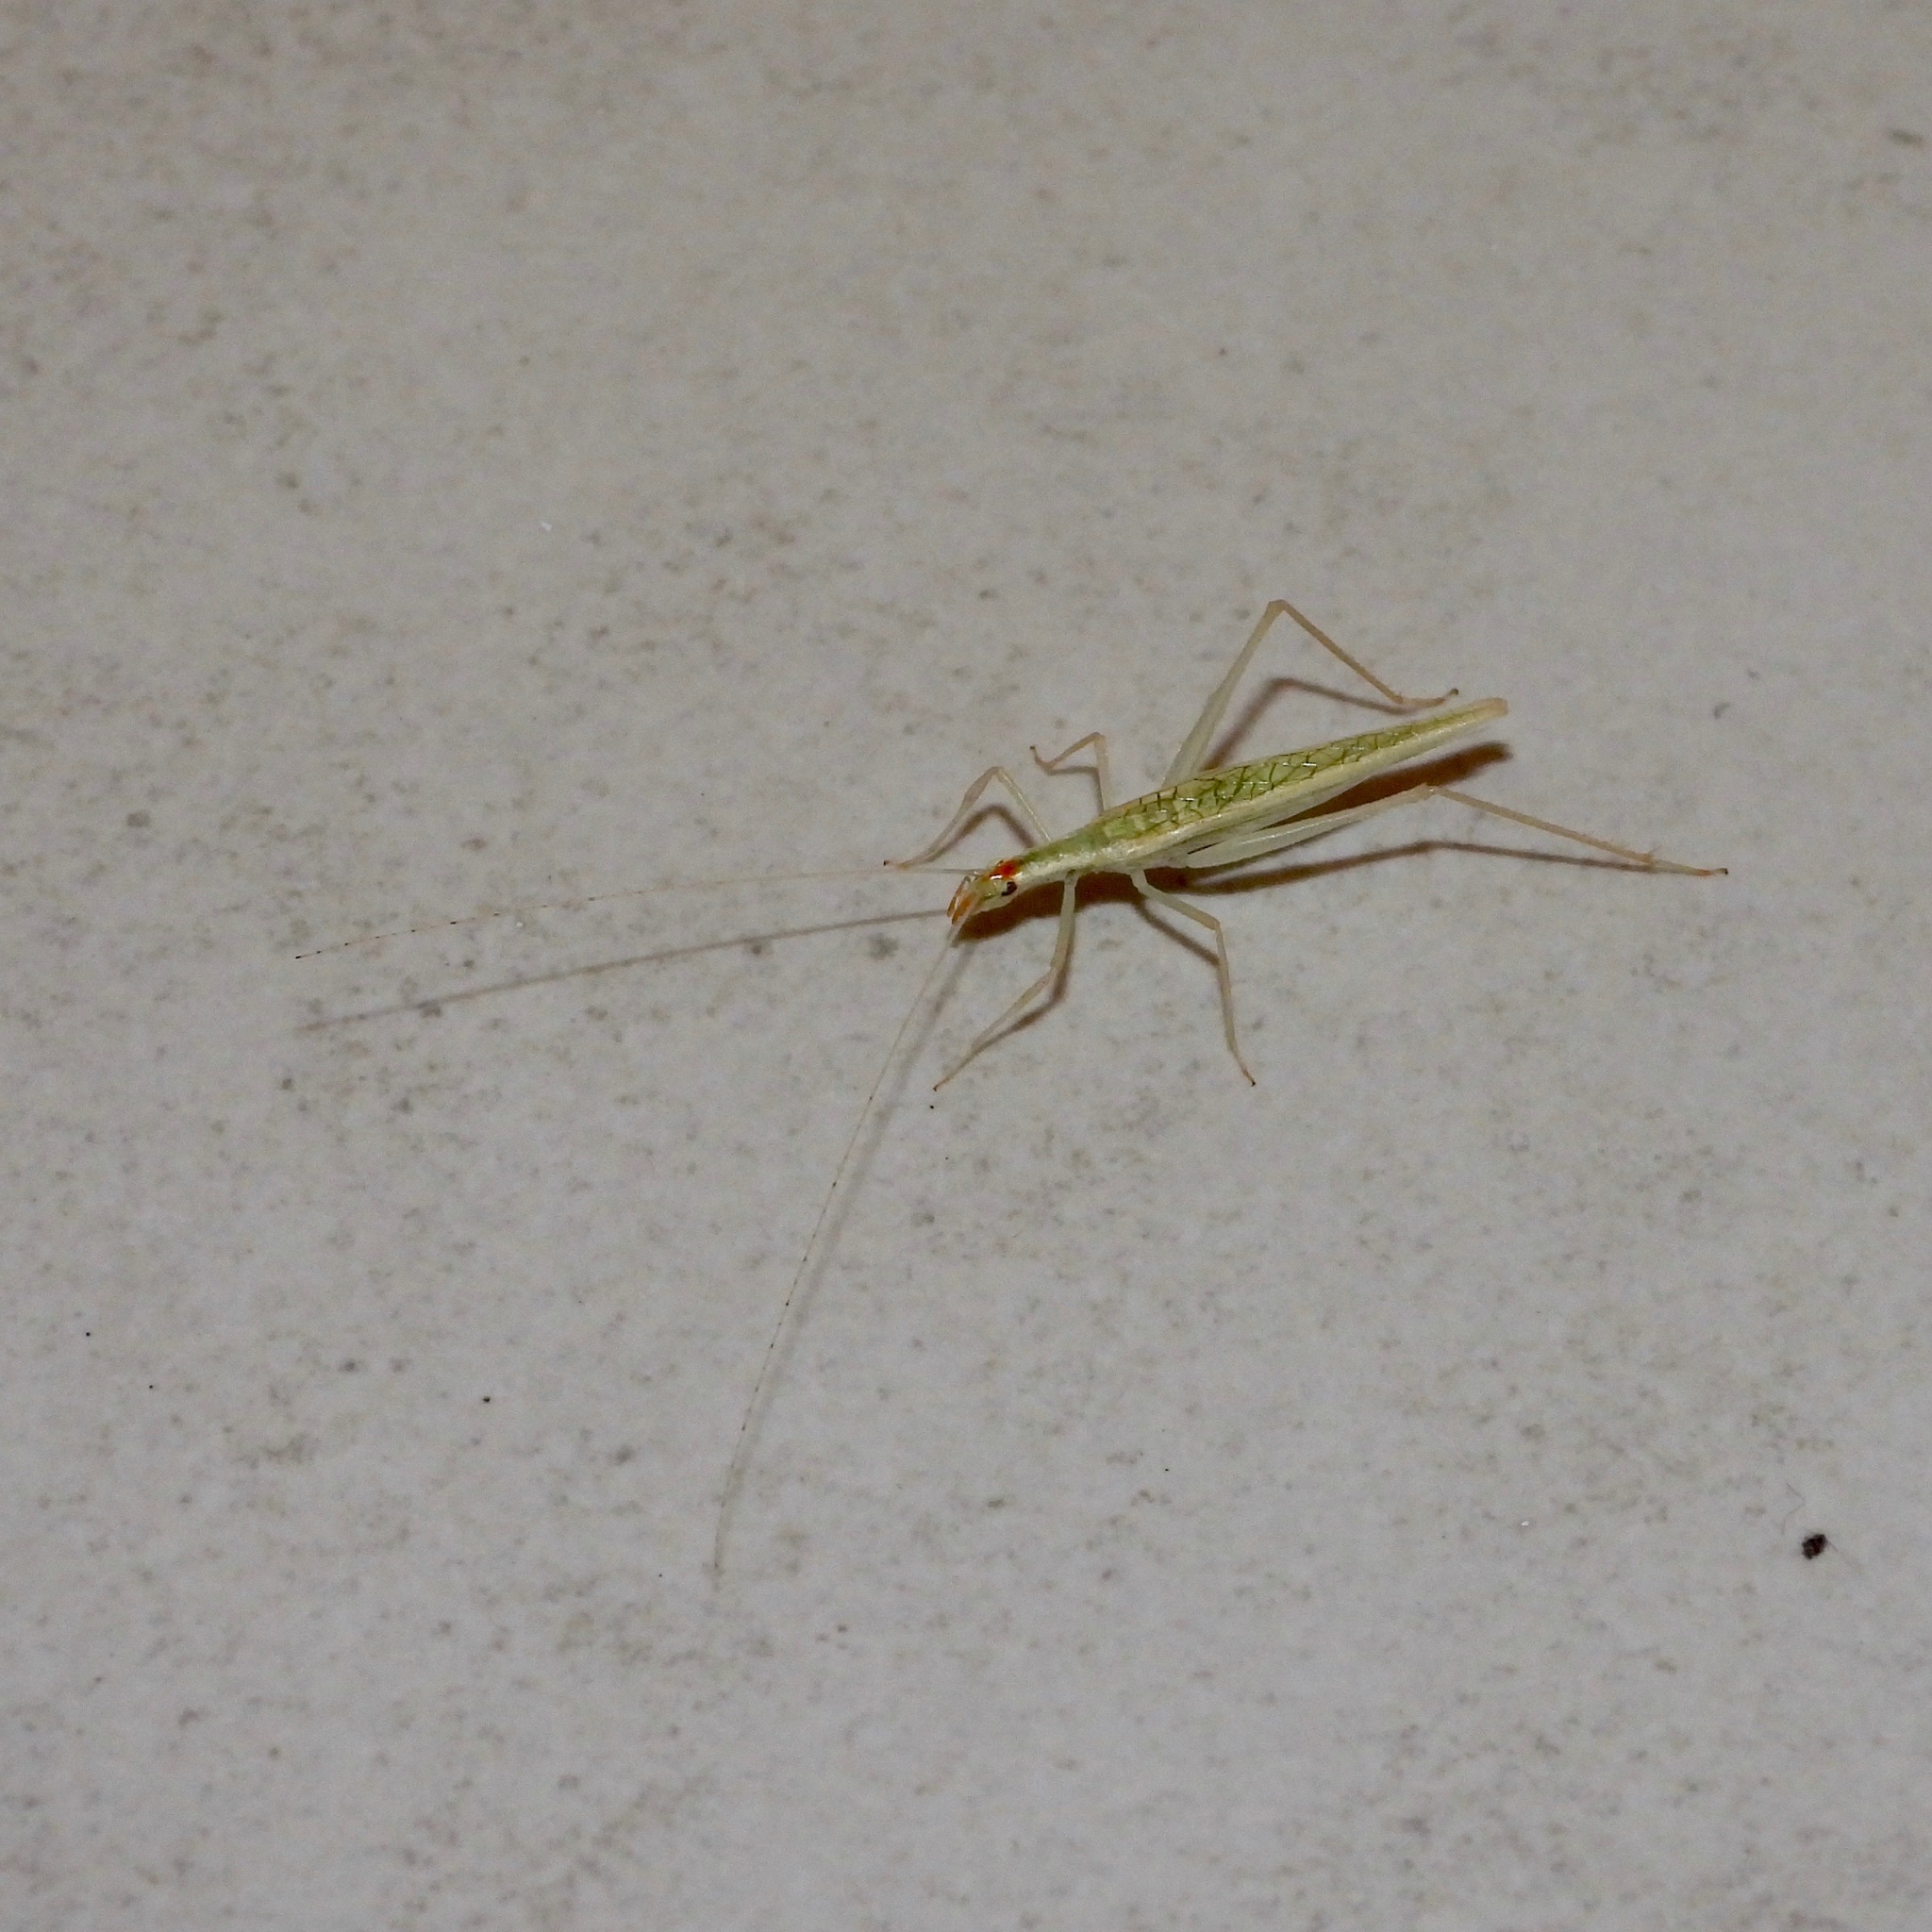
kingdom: Animalia
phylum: Arthropoda
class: Insecta
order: Orthoptera
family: Gryllidae
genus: Oecanthus
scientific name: Oecanthus leptogrammus
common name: Thin-lined tree cricket
